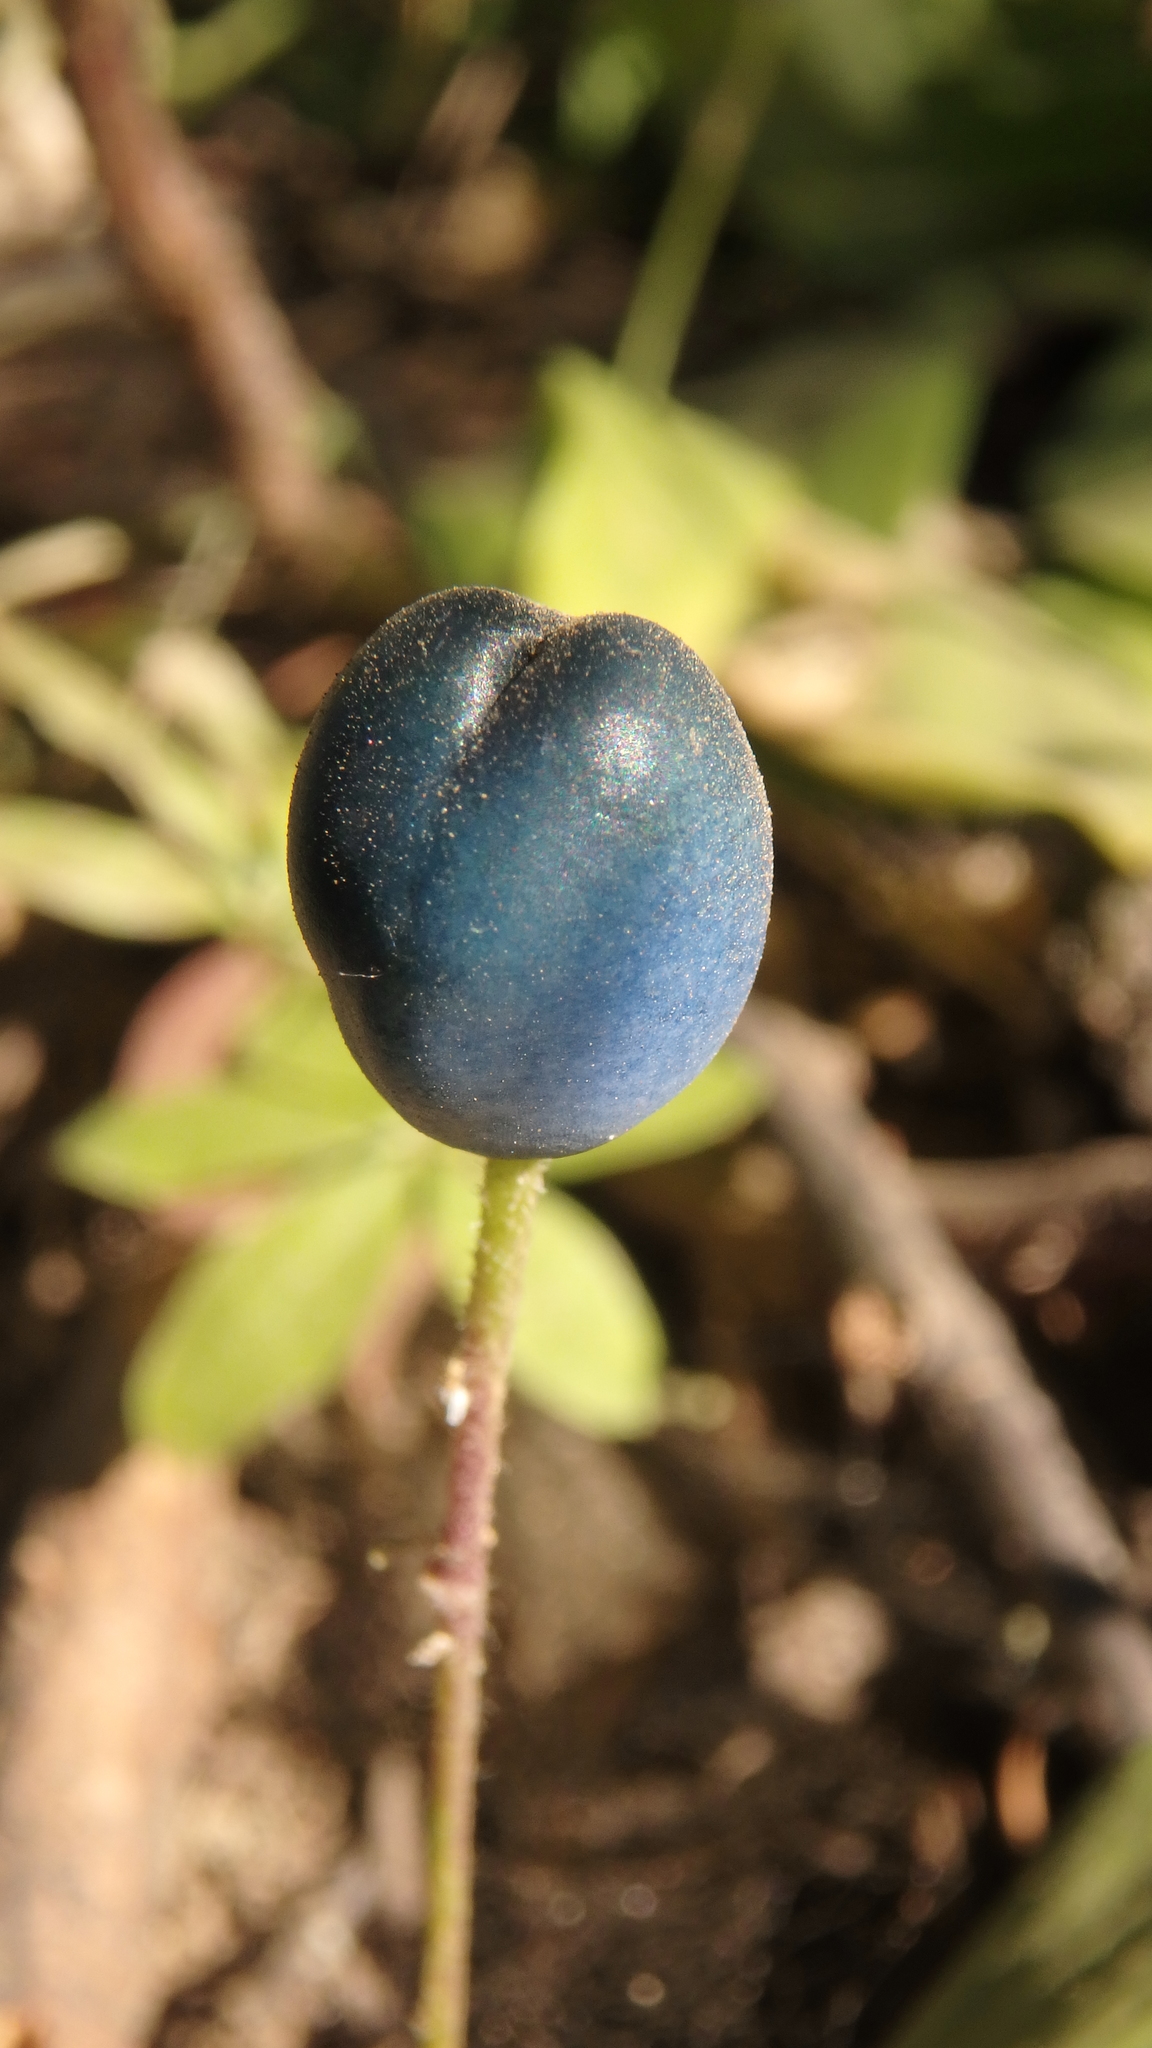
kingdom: Plantae
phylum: Tracheophyta
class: Liliopsida
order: Liliales
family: Liliaceae
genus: Clintonia
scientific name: Clintonia uniflora
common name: Queen's cup
